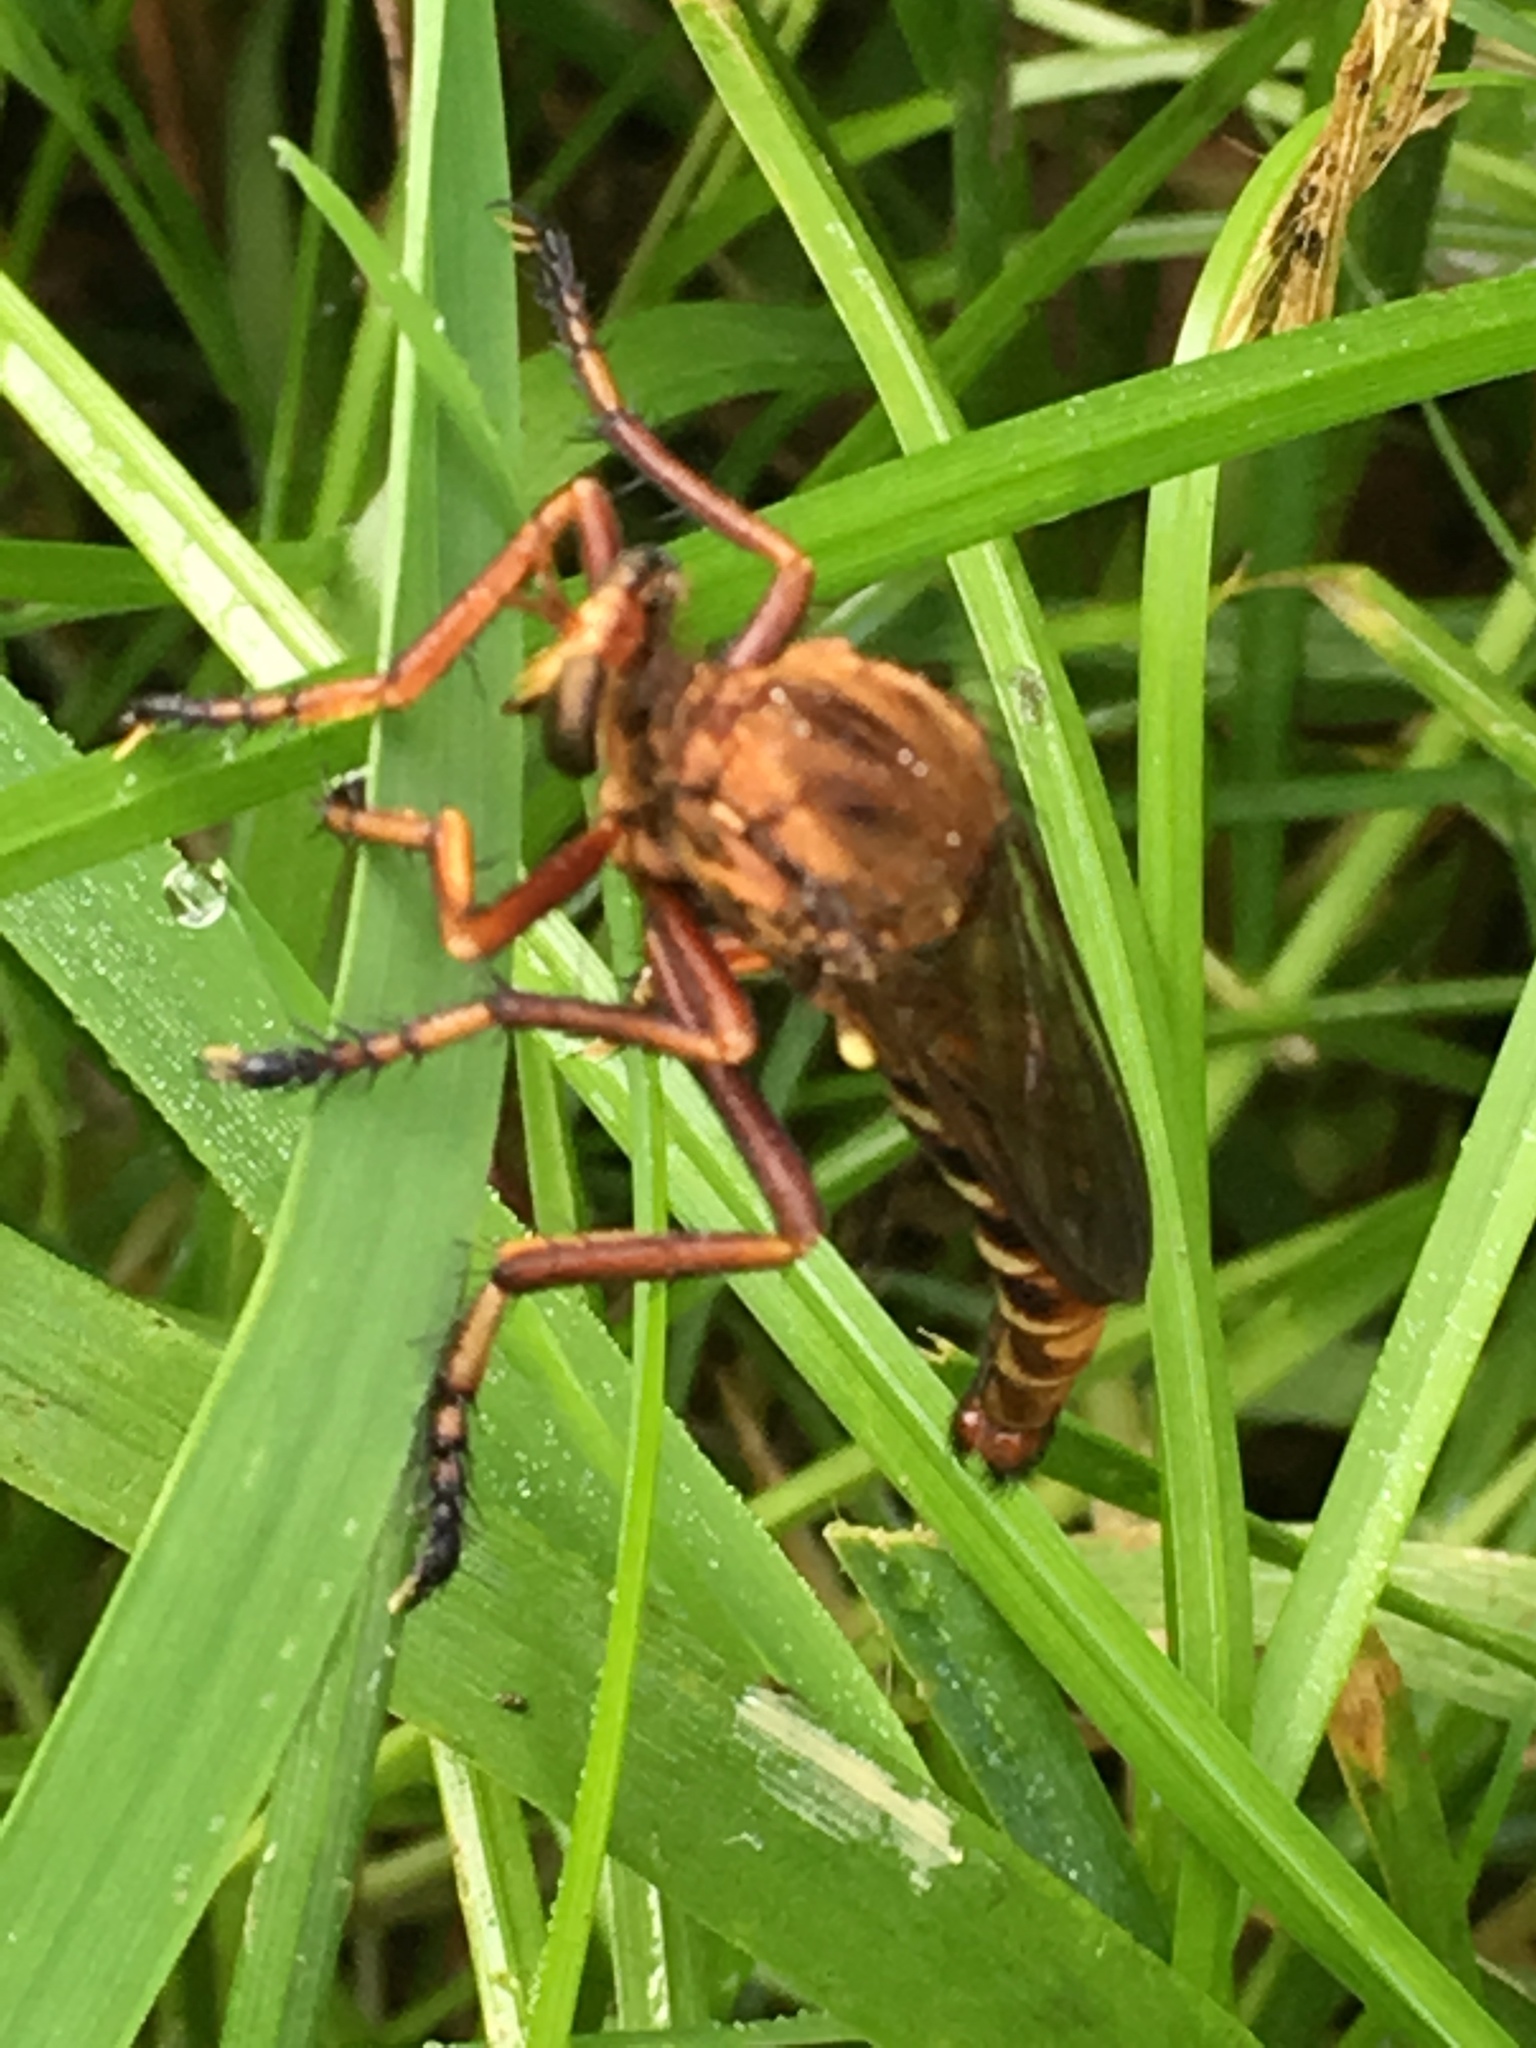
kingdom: Animalia
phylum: Arthropoda
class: Insecta
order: Diptera
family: Asilidae
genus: Diogmites
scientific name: Diogmites basalis
